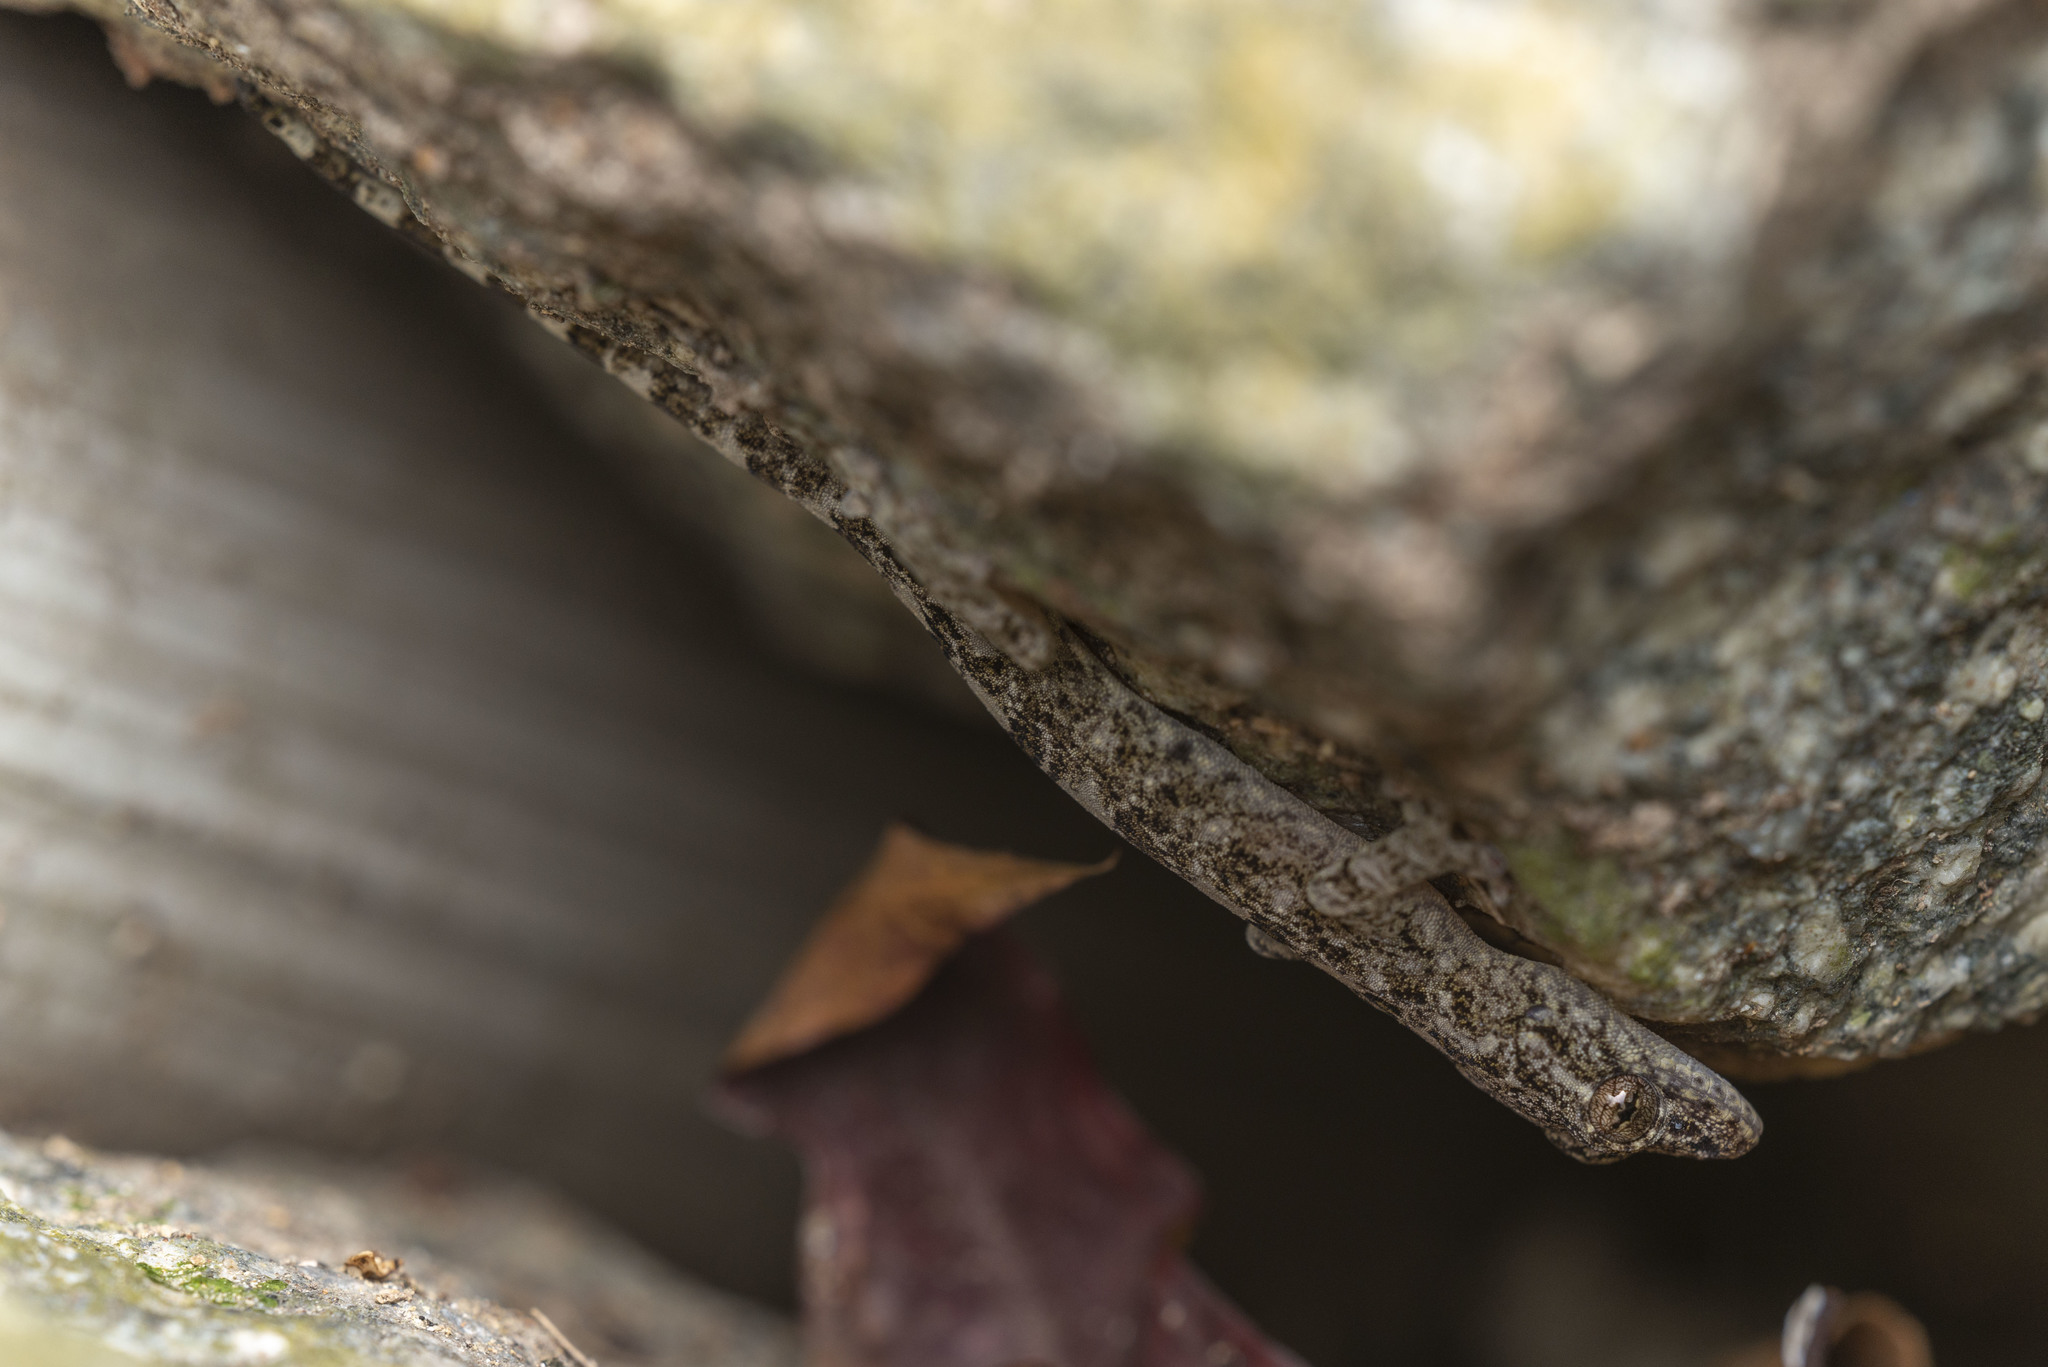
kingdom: Animalia
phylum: Chordata
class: Squamata
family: Gekkonidae
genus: Gekko
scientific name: Gekko chinensis
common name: Gray's chinese gecko
